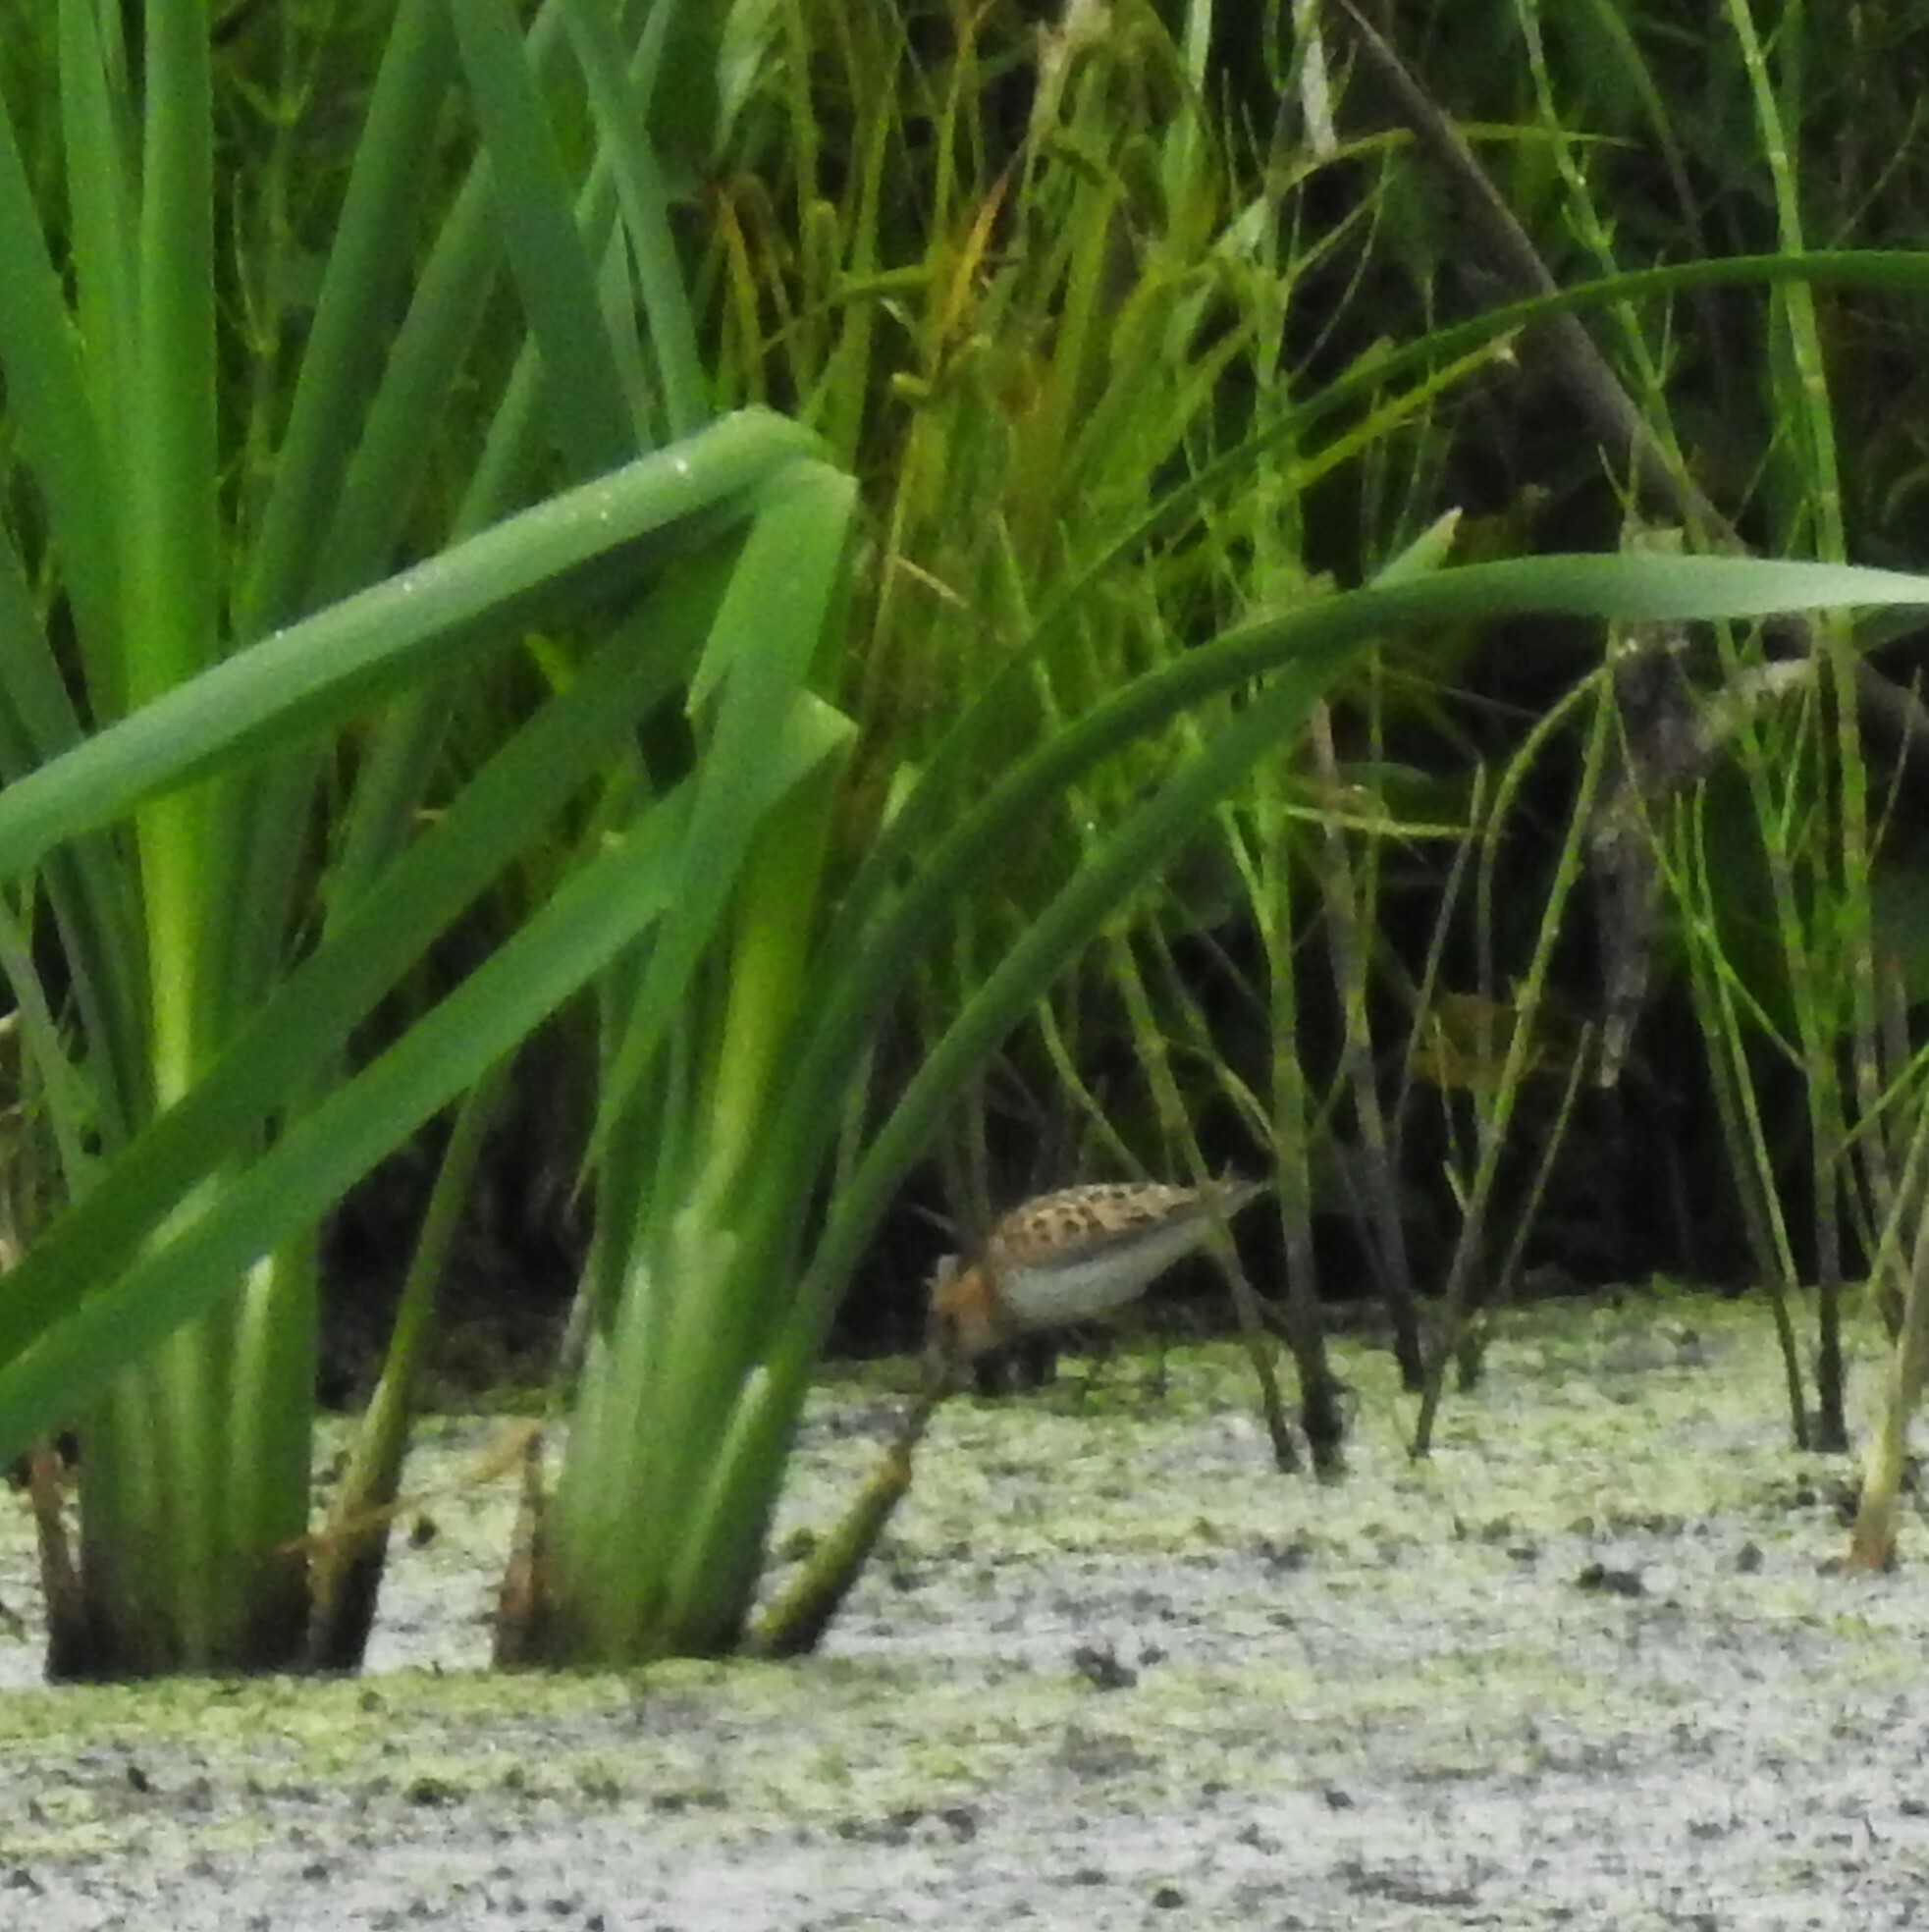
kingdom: Animalia
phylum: Chordata
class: Aves
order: Charadriiformes
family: Scolopacidae
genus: Calidris
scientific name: Calidris minuta
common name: Little stint
